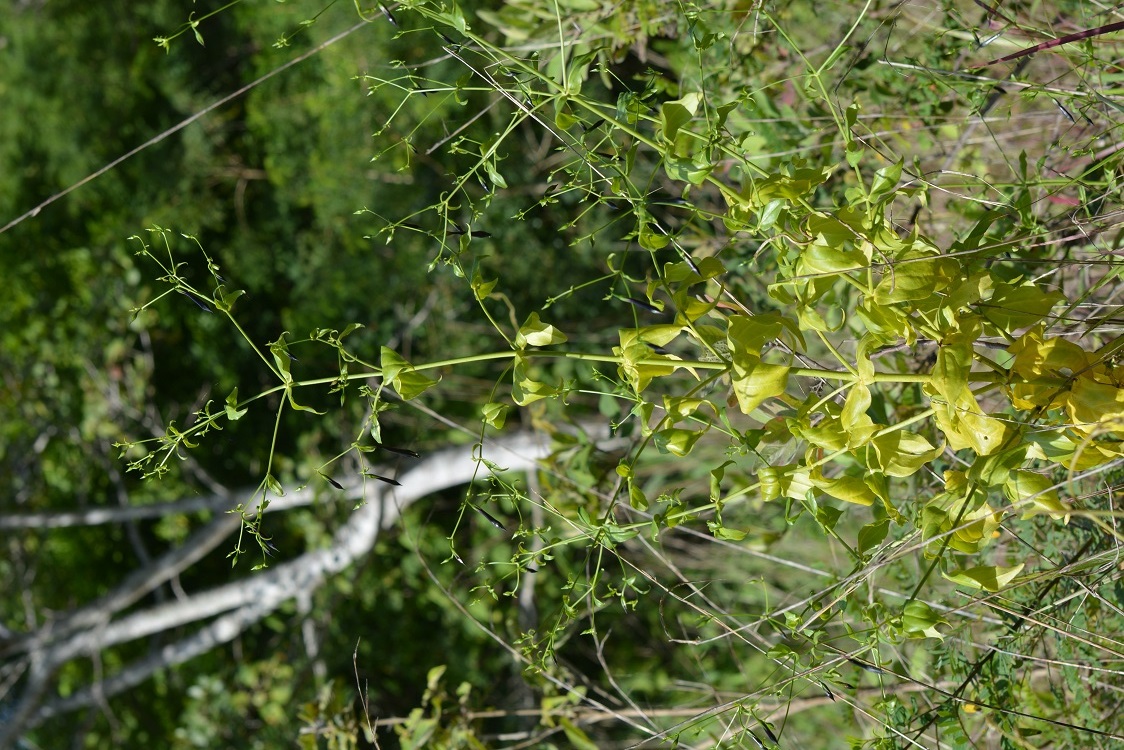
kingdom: Plantae
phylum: Tracheophyta
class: Magnoliopsida
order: Gentianales
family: Gentianaceae
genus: Lisianthus
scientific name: Lisianthus nigrescens
